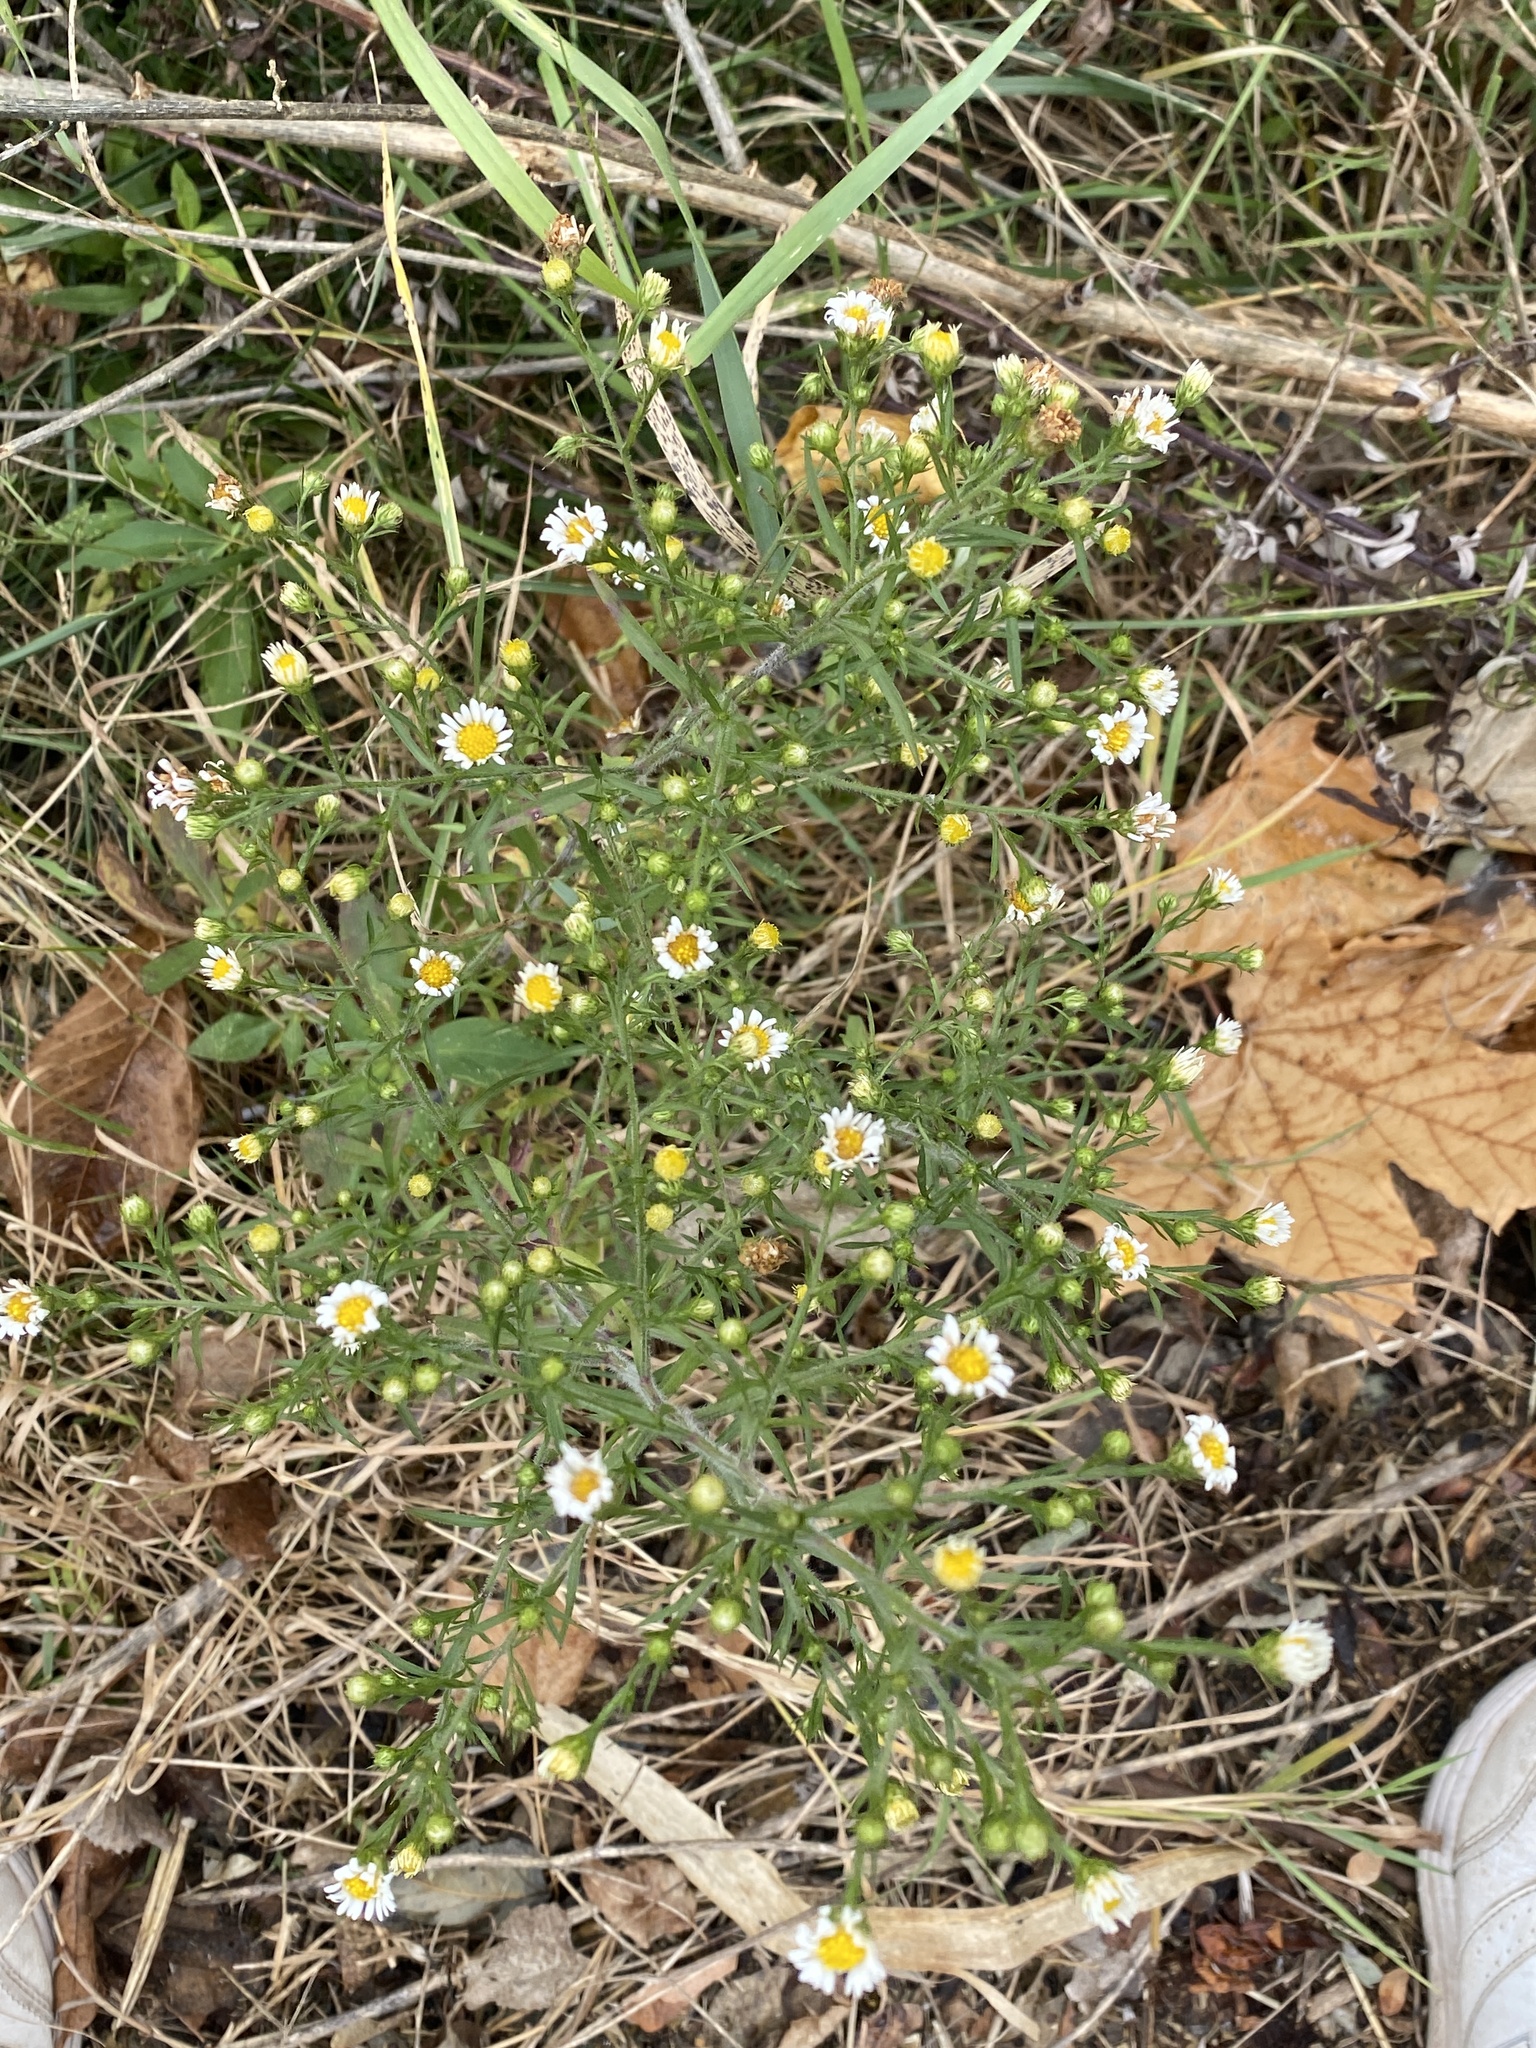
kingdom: Plantae
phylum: Tracheophyta
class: Magnoliopsida
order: Asterales
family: Asteraceae
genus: Symphyotrichum
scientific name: Symphyotrichum lanceolatum
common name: Panicled aster
